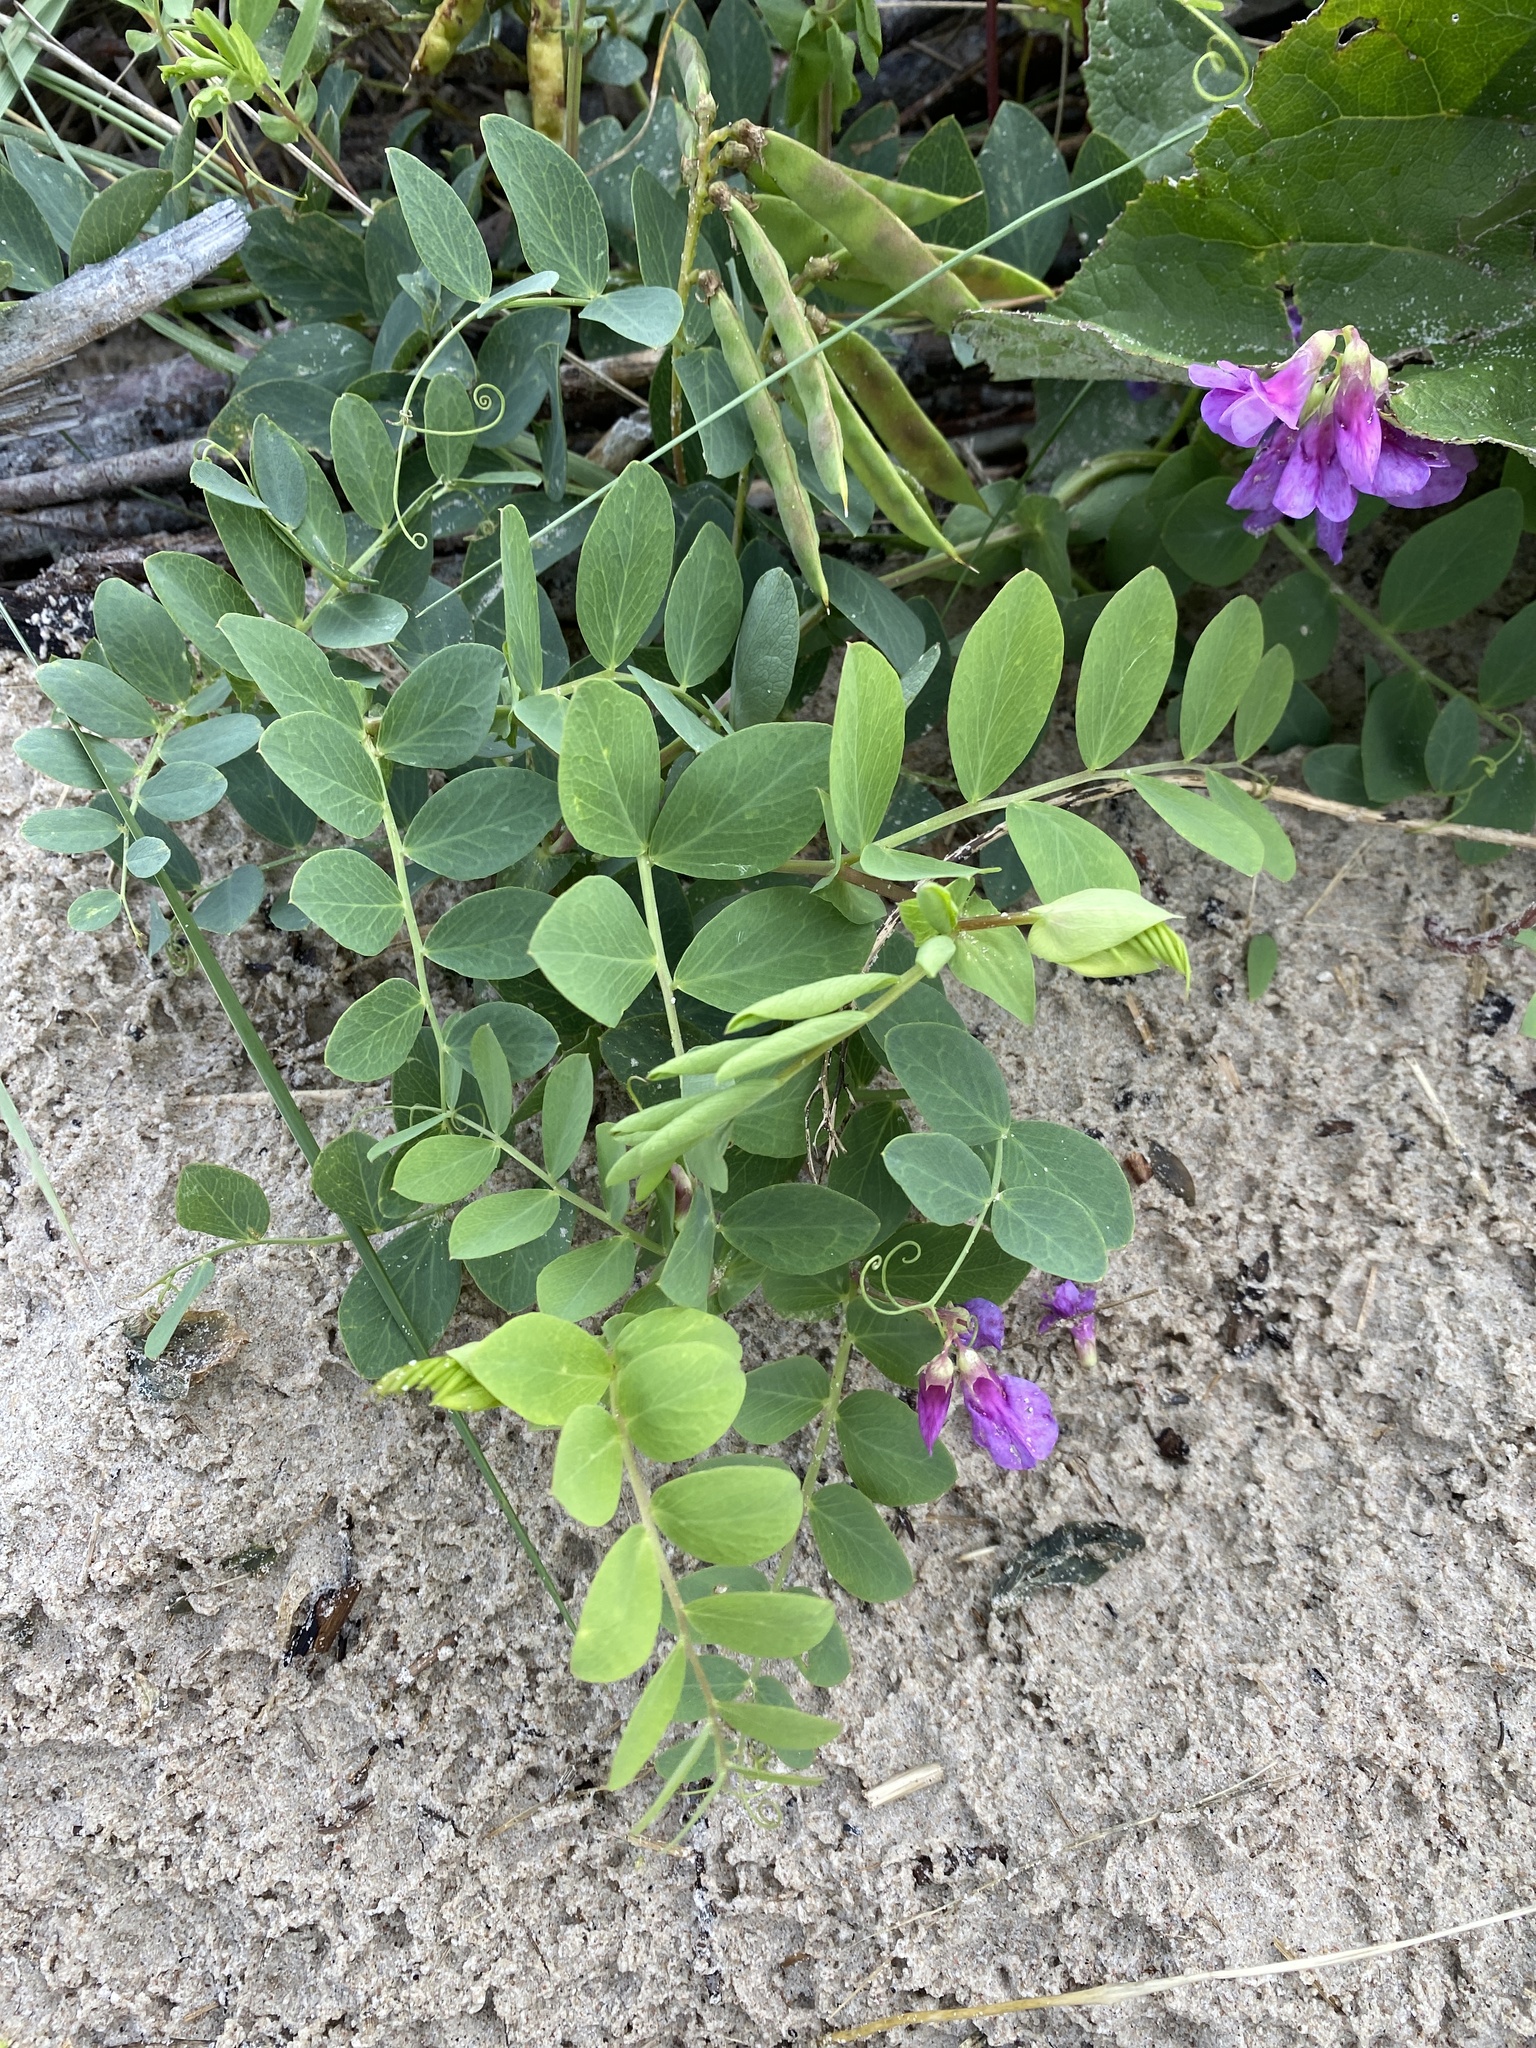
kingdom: Plantae
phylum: Tracheophyta
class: Magnoliopsida
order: Fabales
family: Fabaceae
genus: Lathyrus
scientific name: Lathyrus japonicus
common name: Sea pea
